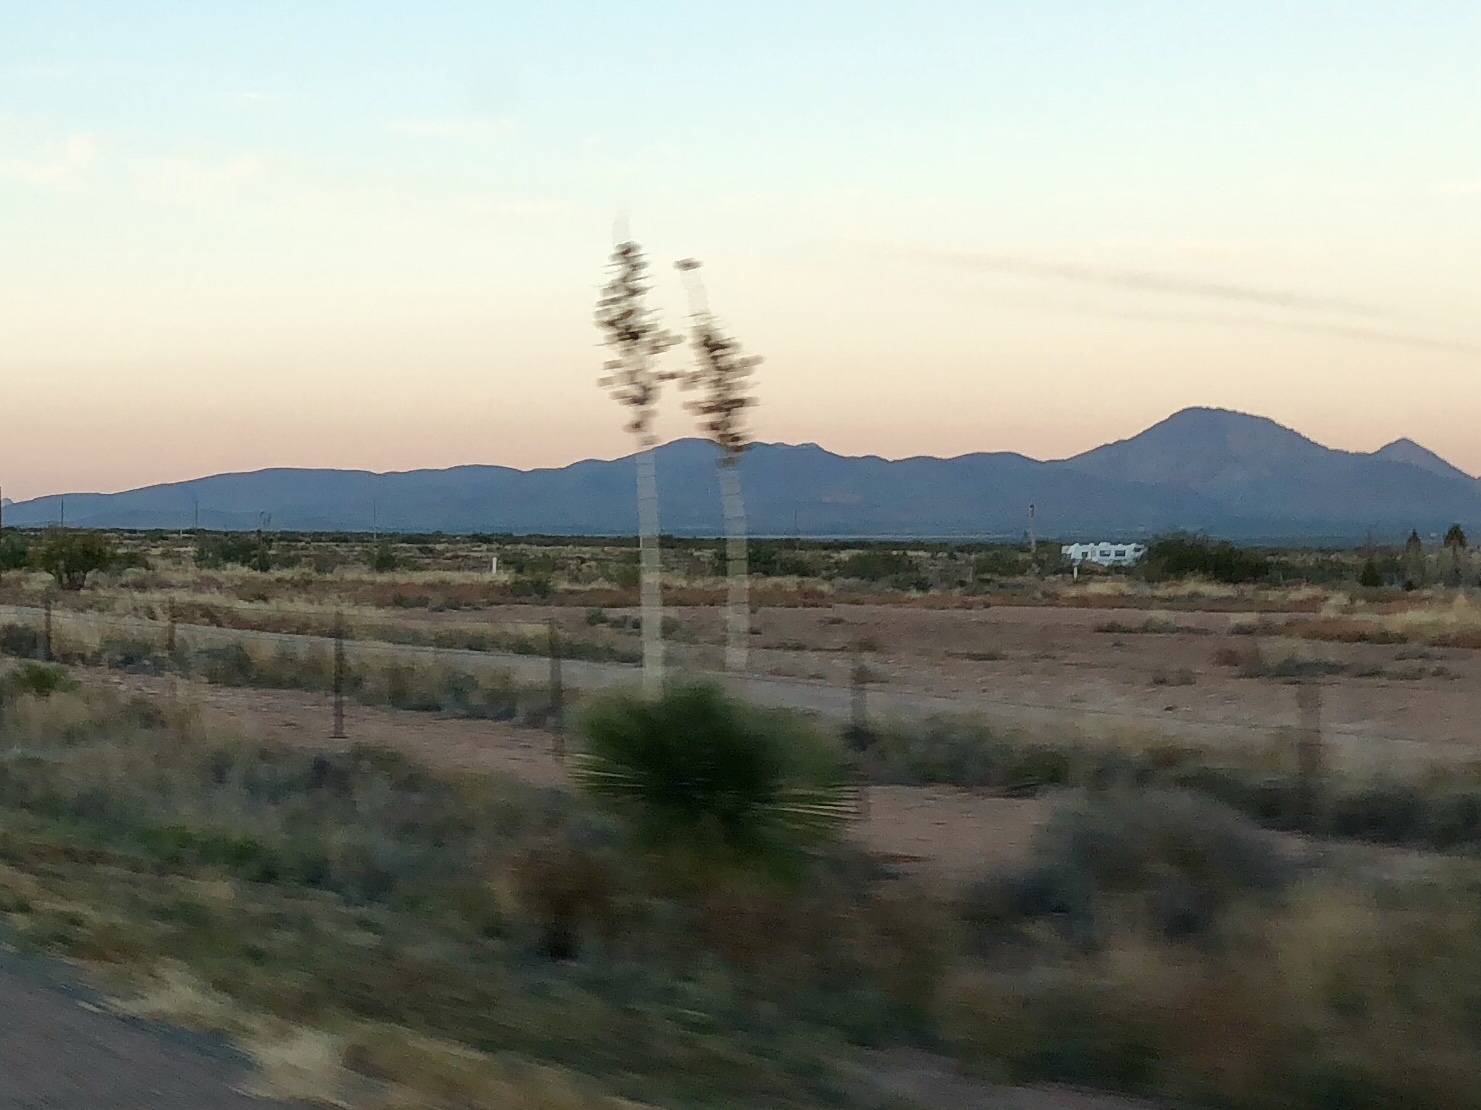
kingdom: Plantae
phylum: Tracheophyta
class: Liliopsida
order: Asparagales
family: Asparagaceae
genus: Yucca
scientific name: Yucca elata
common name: Palmella
